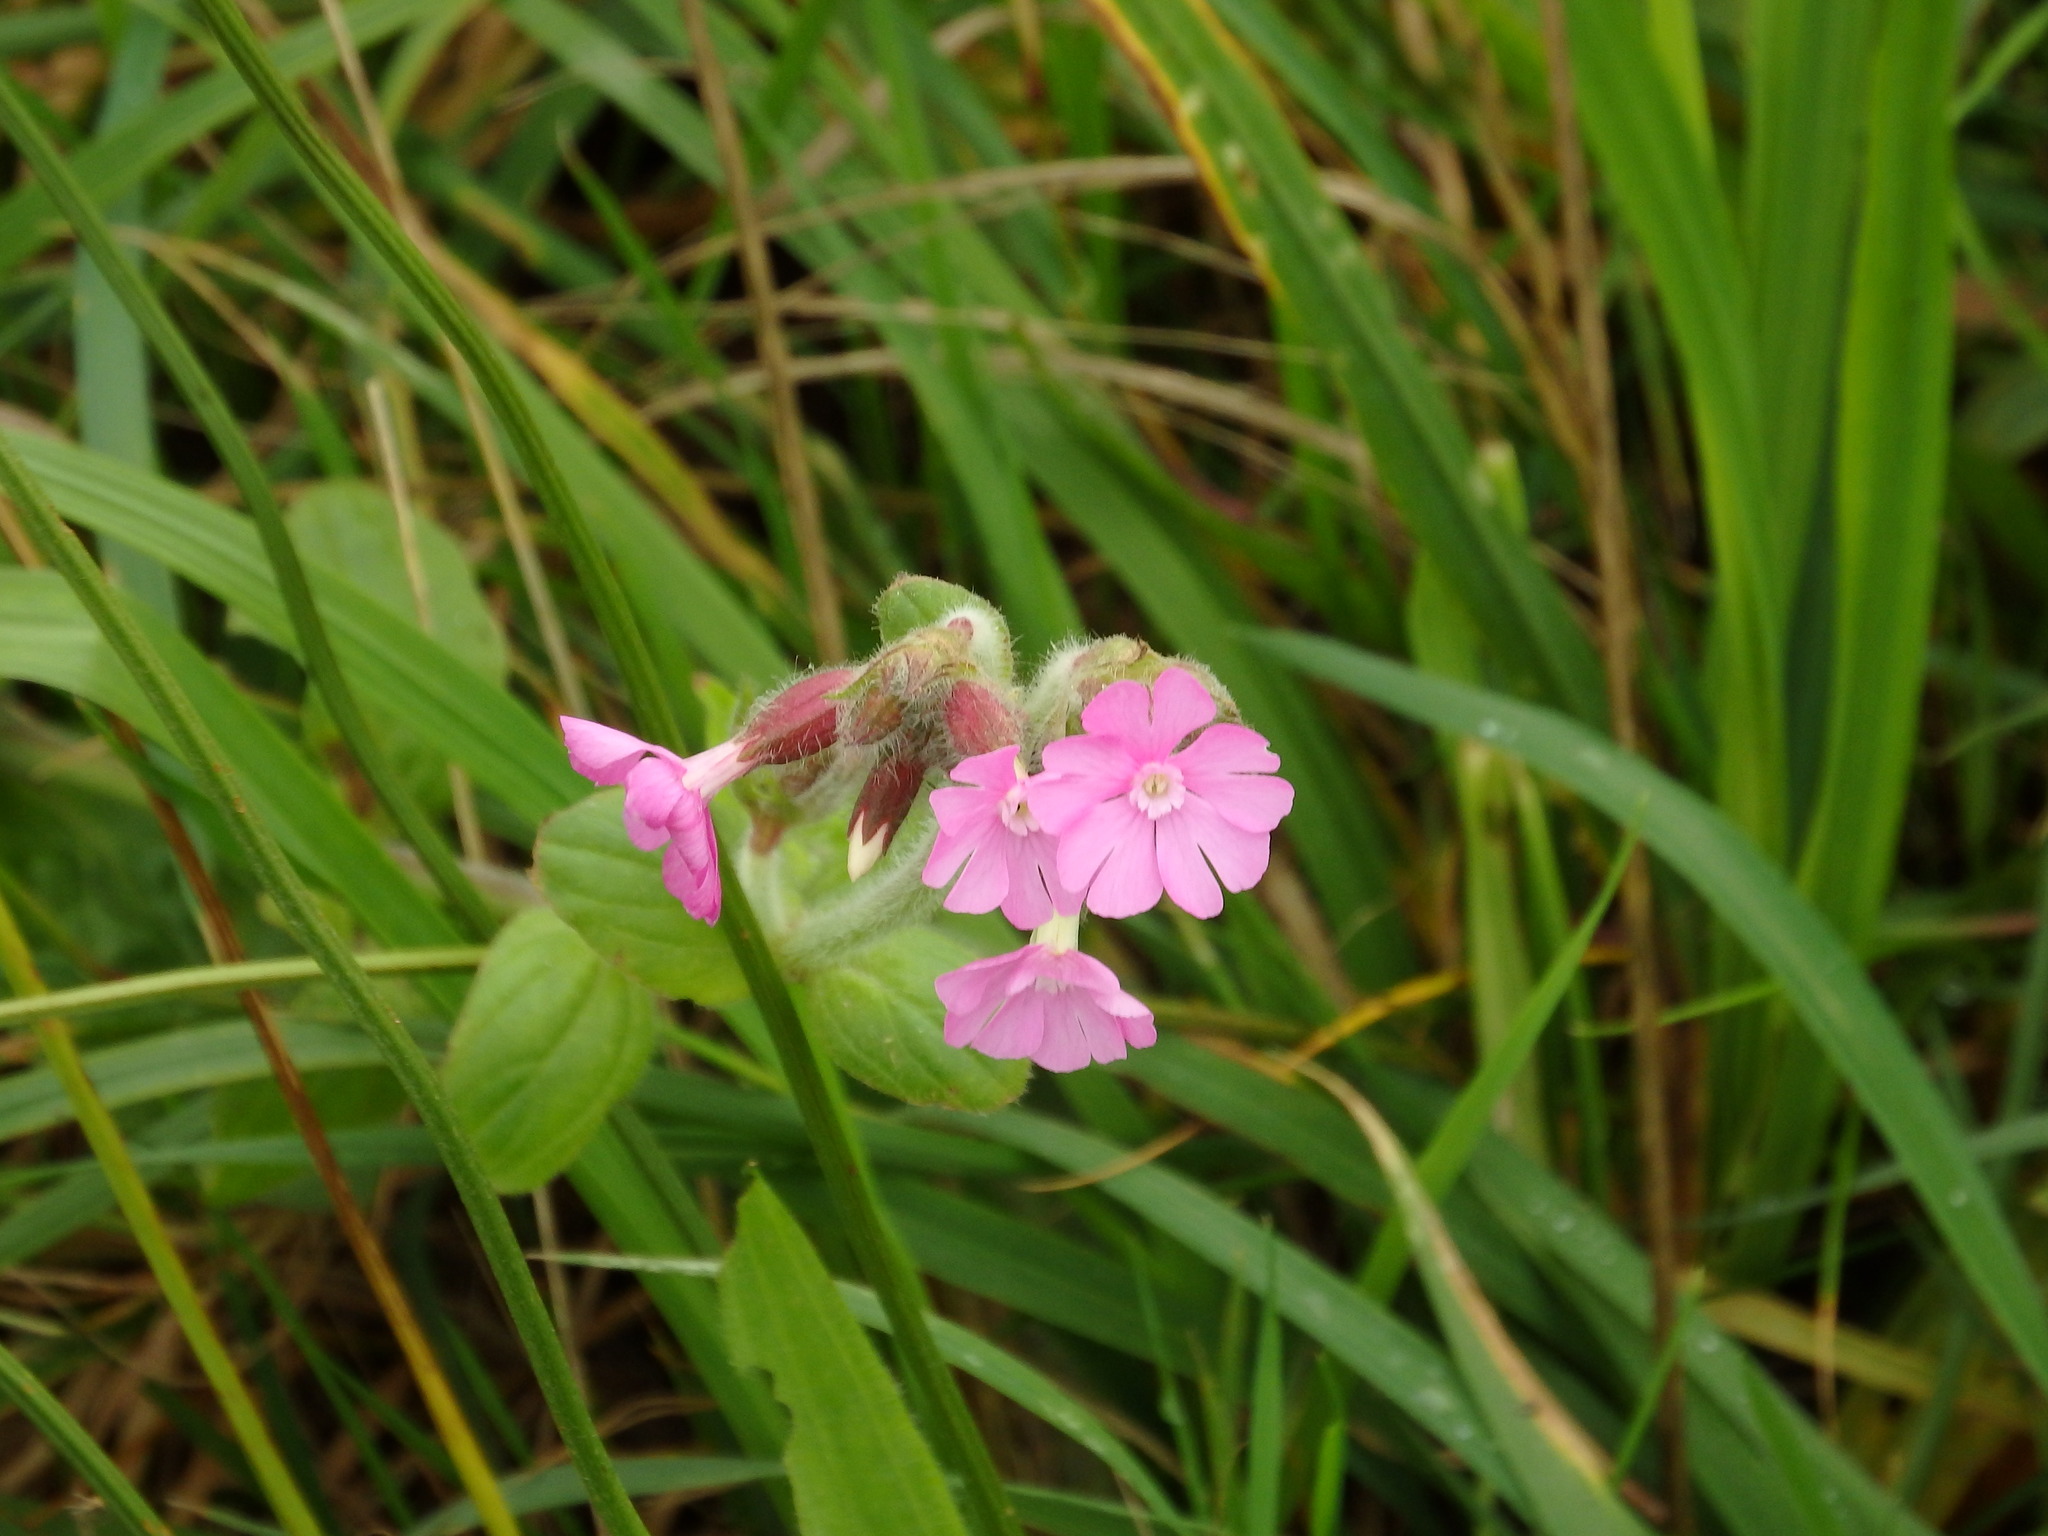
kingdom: Plantae
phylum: Tracheophyta
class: Magnoliopsida
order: Caryophyllales
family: Caryophyllaceae
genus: Silene
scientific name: Silene dioica
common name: Red campion
